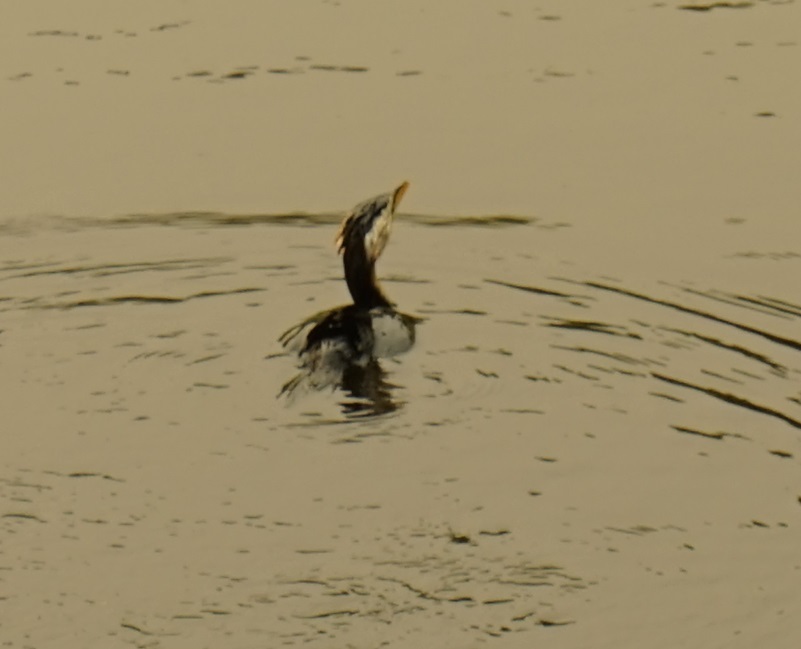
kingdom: Animalia
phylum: Chordata
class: Aves
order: Suliformes
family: Phalacrocoracidae
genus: Microcarbo
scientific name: Microcarbo melanoleucos
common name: Little pied cormorant
